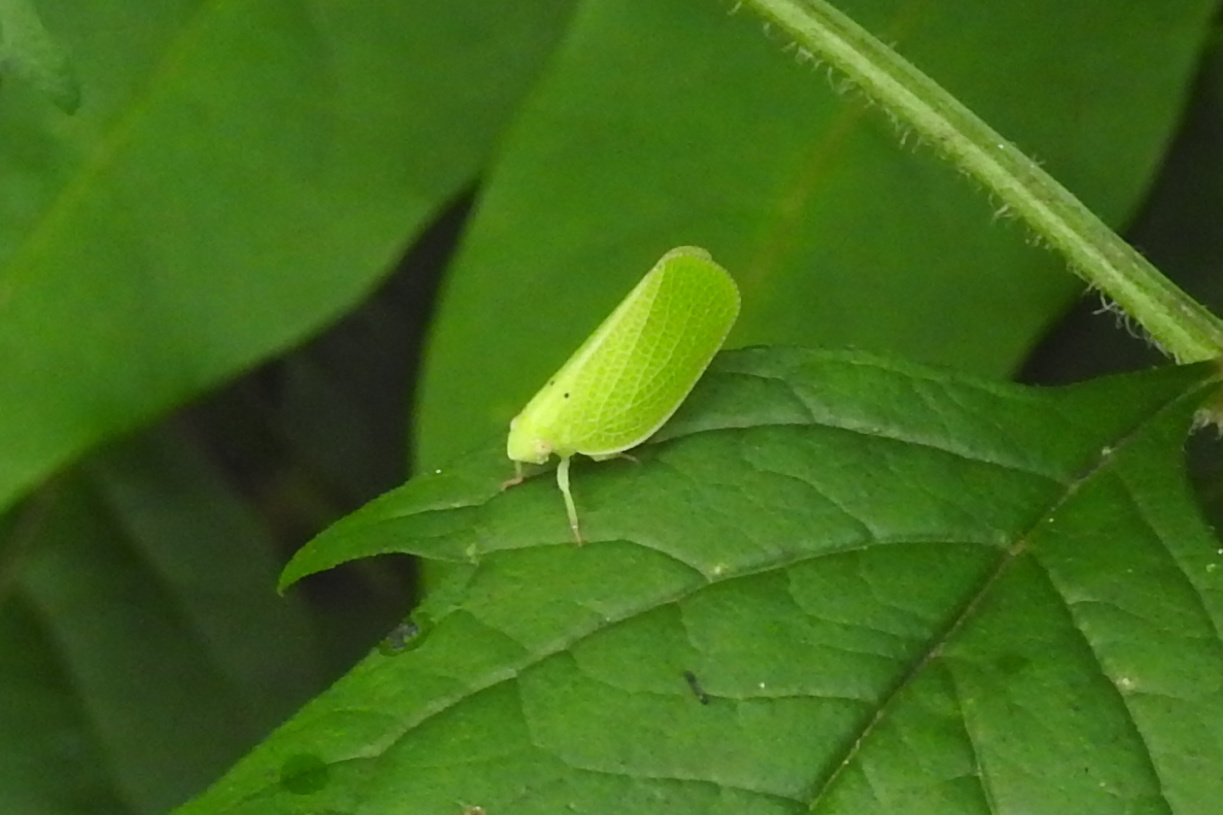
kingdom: Animalia
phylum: Arthropoda
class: Insecta
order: Hemiptera
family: Acanaloniidae
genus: Acanalonia
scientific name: Acanalonia conica
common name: Green cone-headed planthopper
